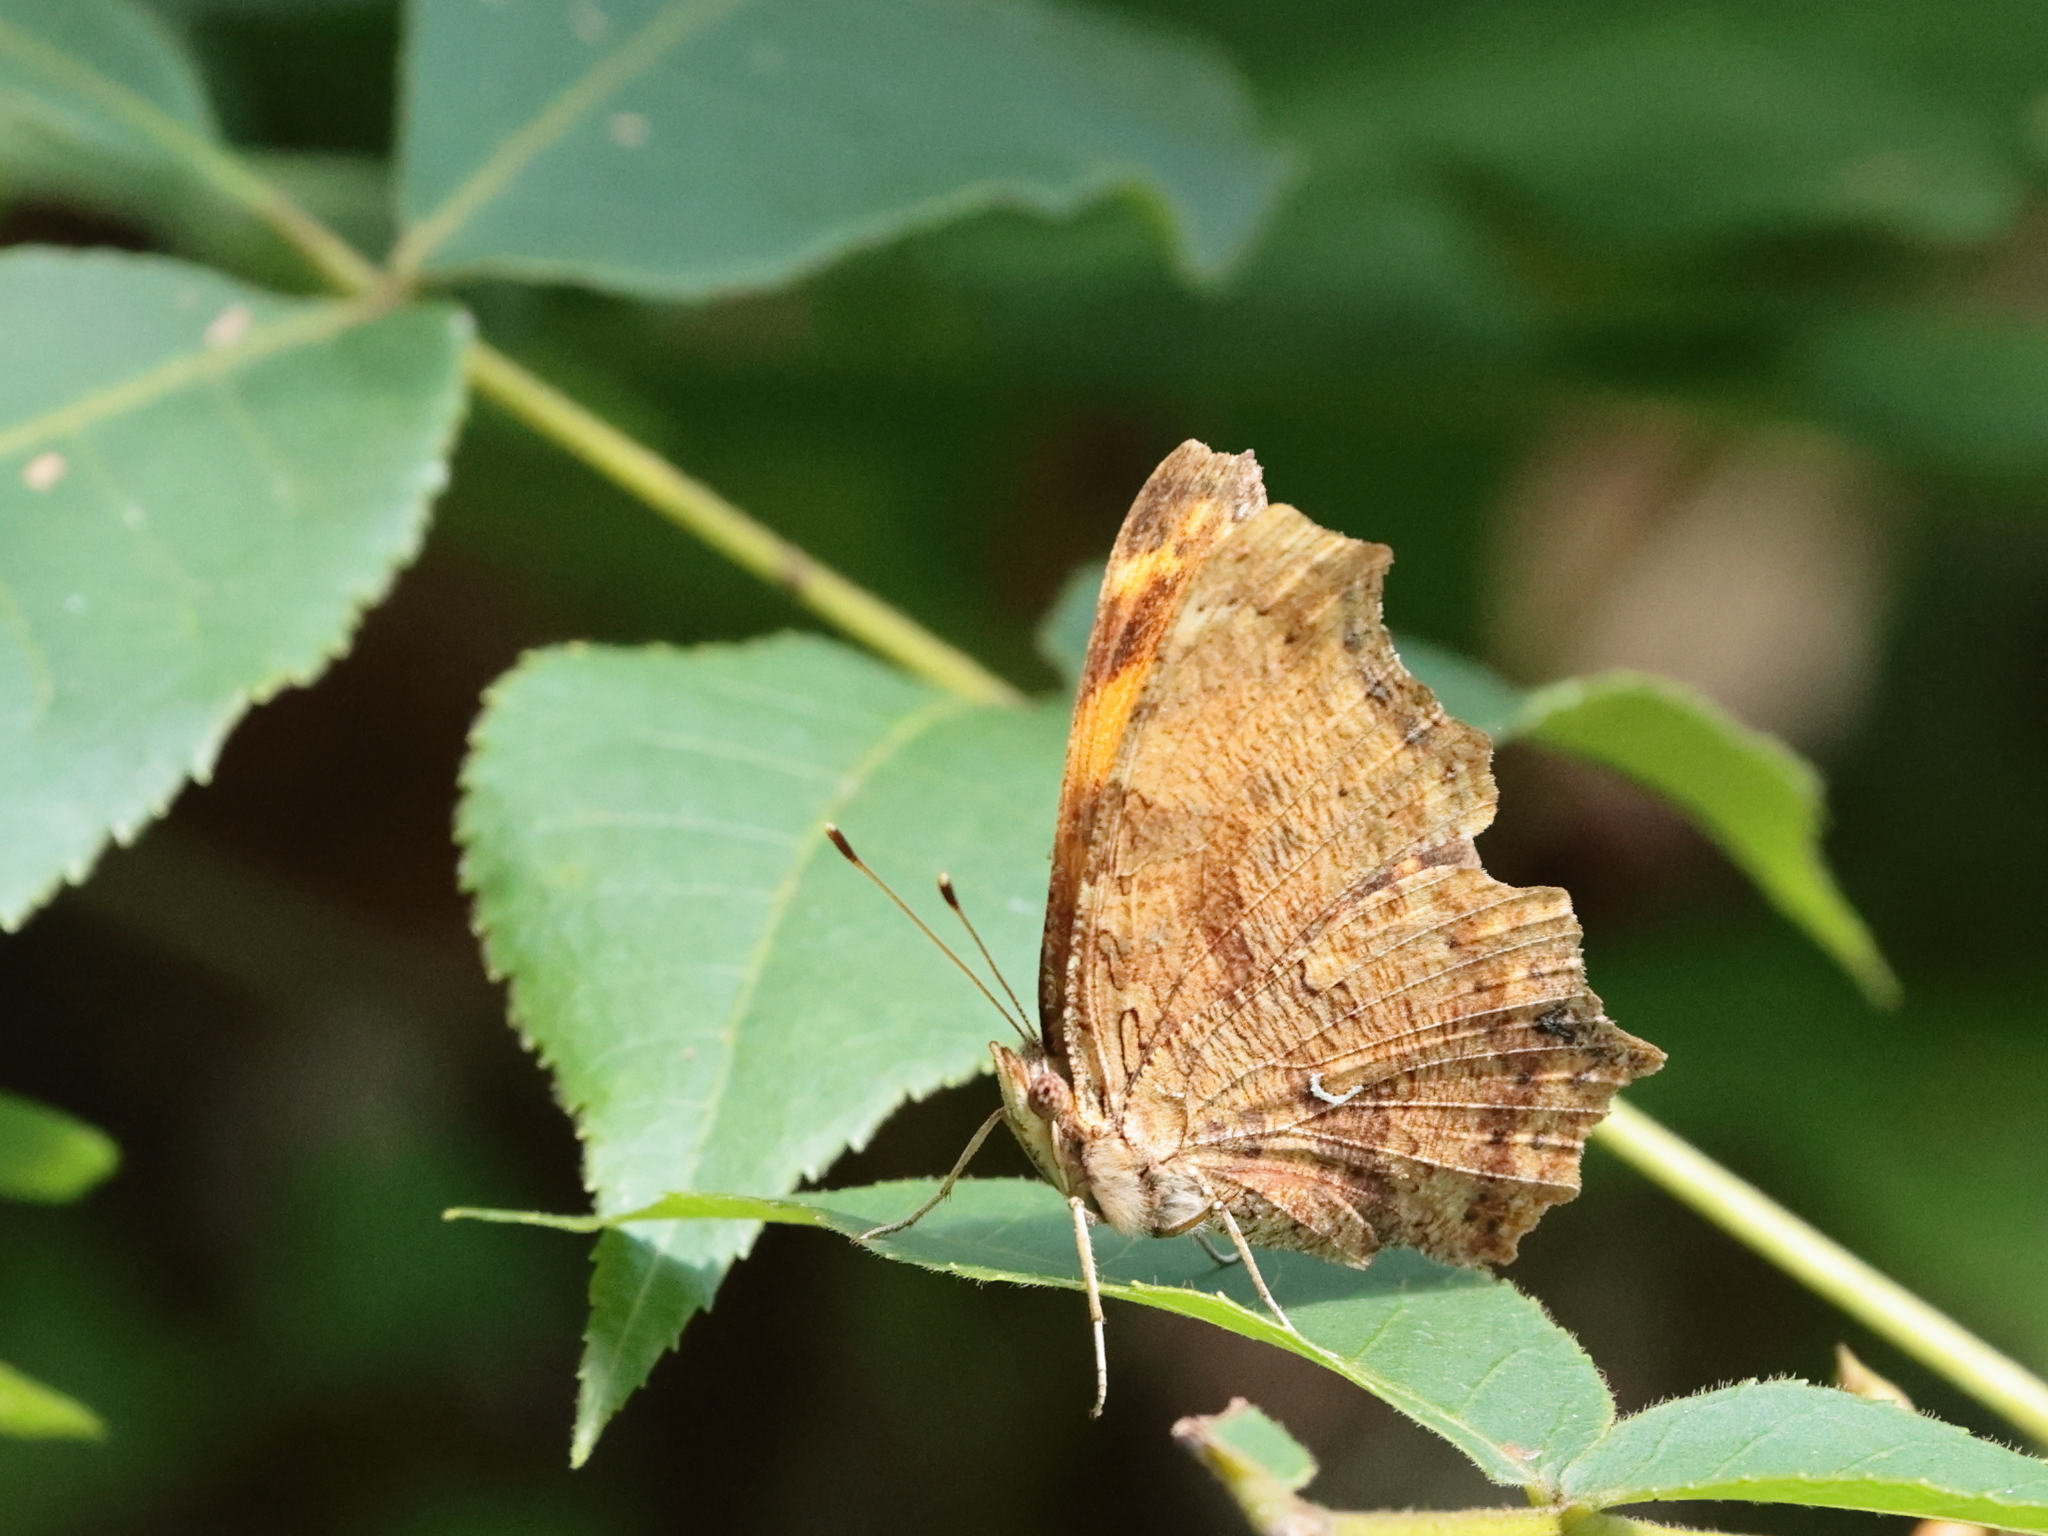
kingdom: Animalia
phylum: Arthropoda
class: Insecta
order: Lepidoptera
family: Nymphalidae
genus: Polygonia
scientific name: Polygonia comma
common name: Eastern comma
